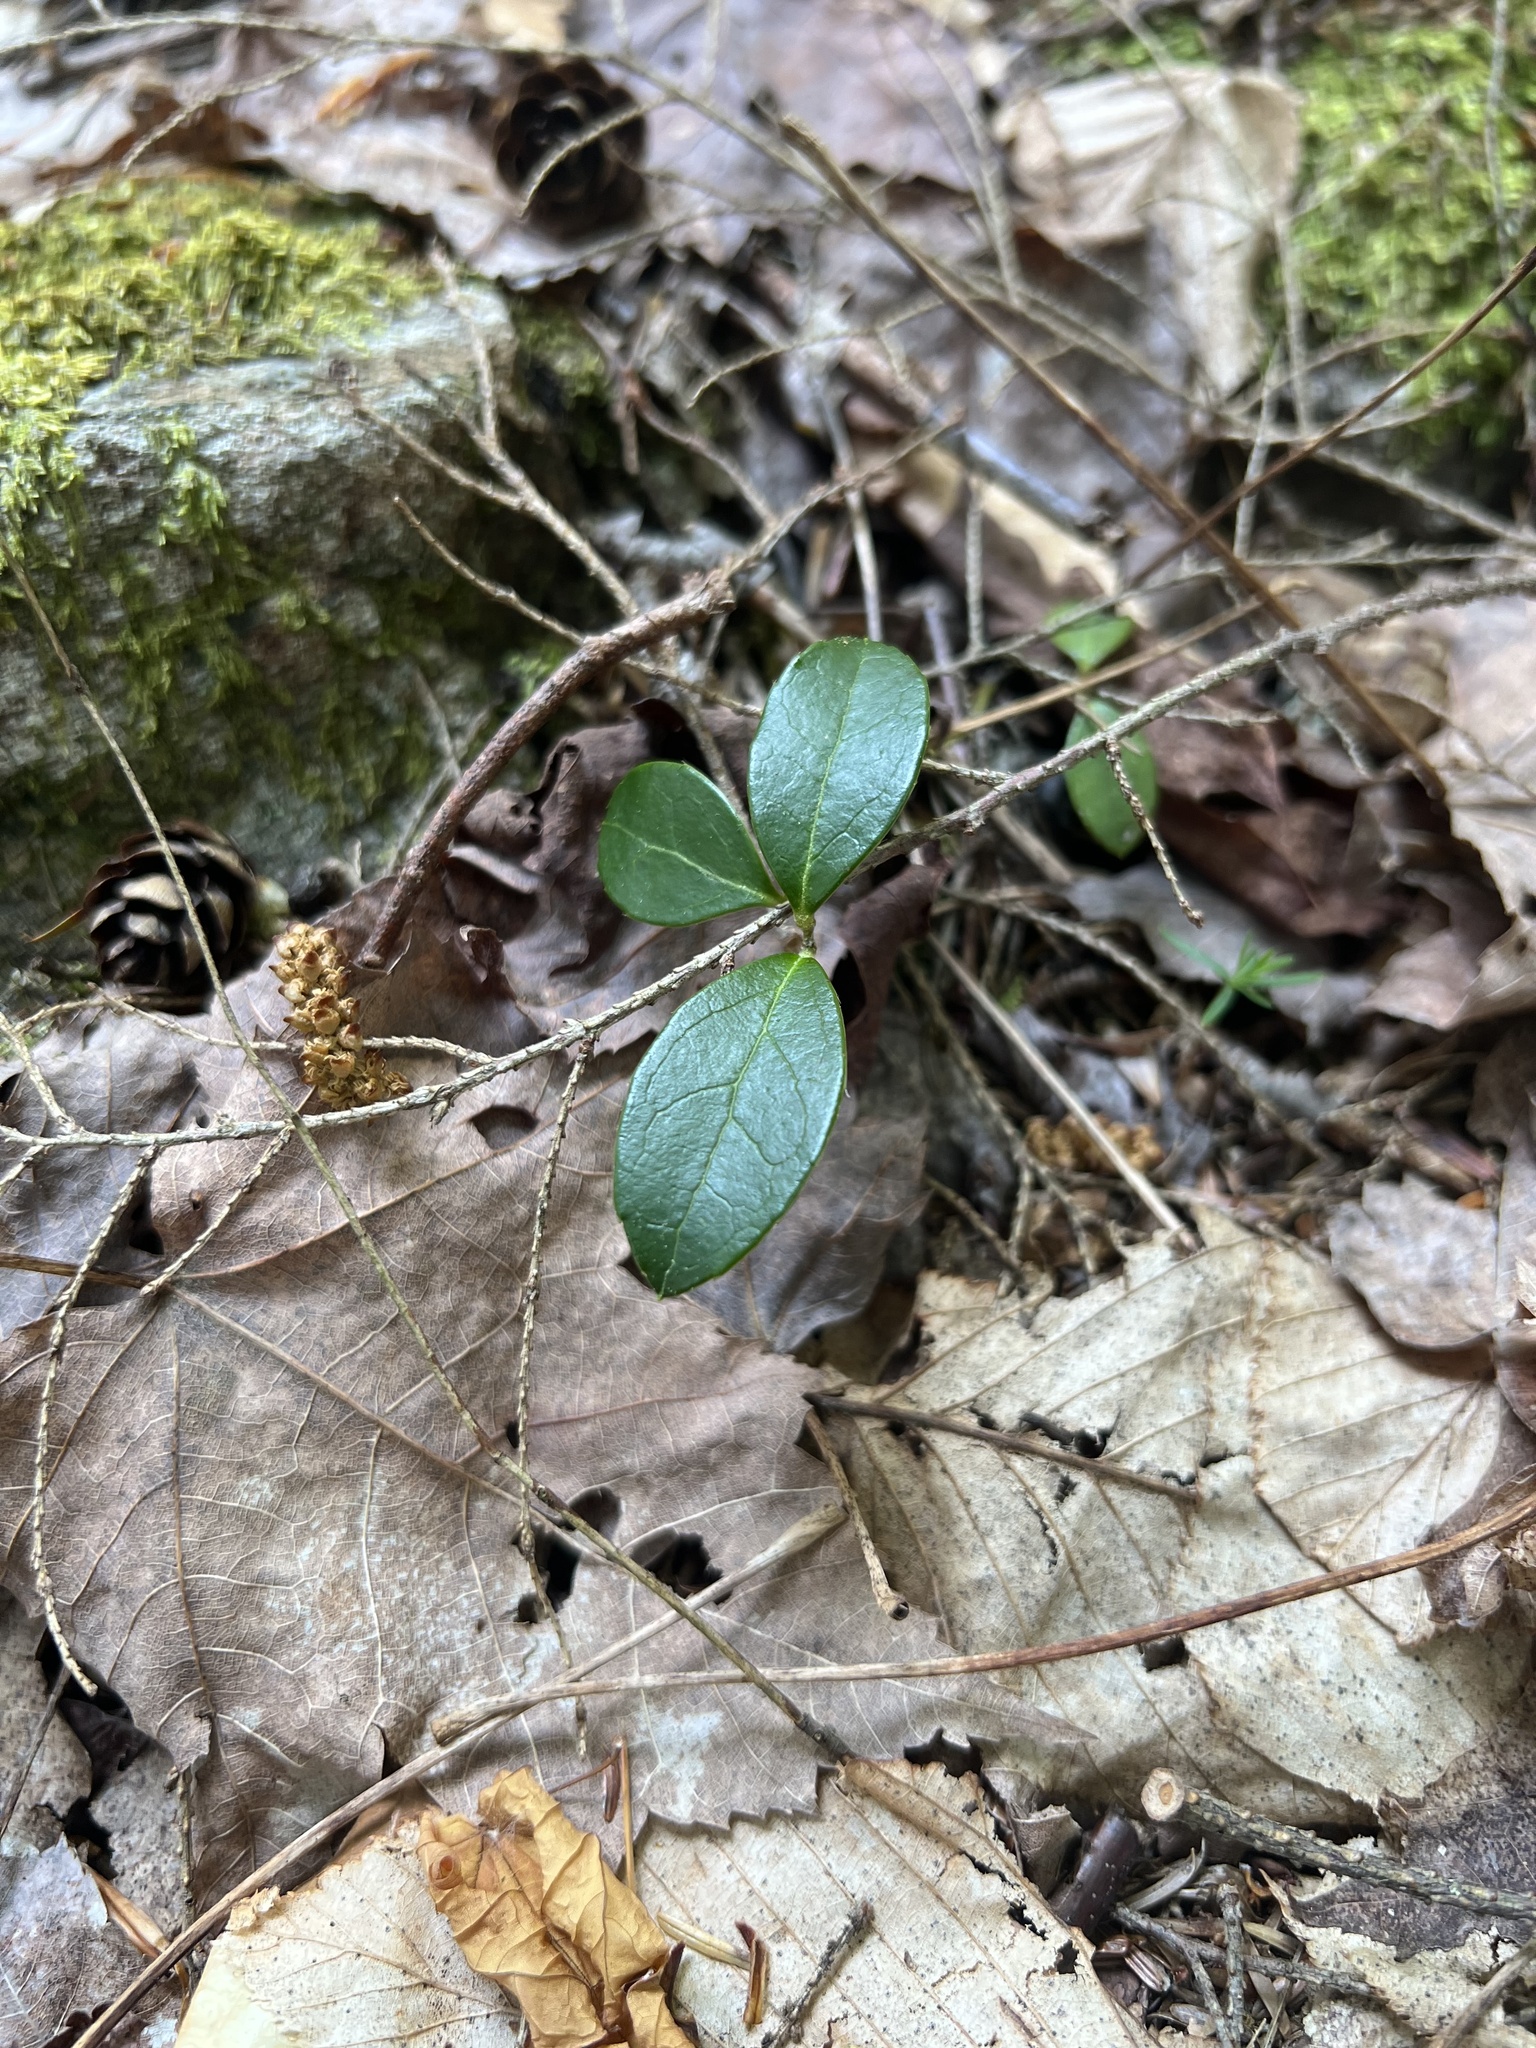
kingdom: Plantae
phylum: Tracheophyta
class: Magnoliopsida
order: Ericales
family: Ericaceae
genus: Gaultheria
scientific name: Gaultheria procumbens
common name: Checkerberry
